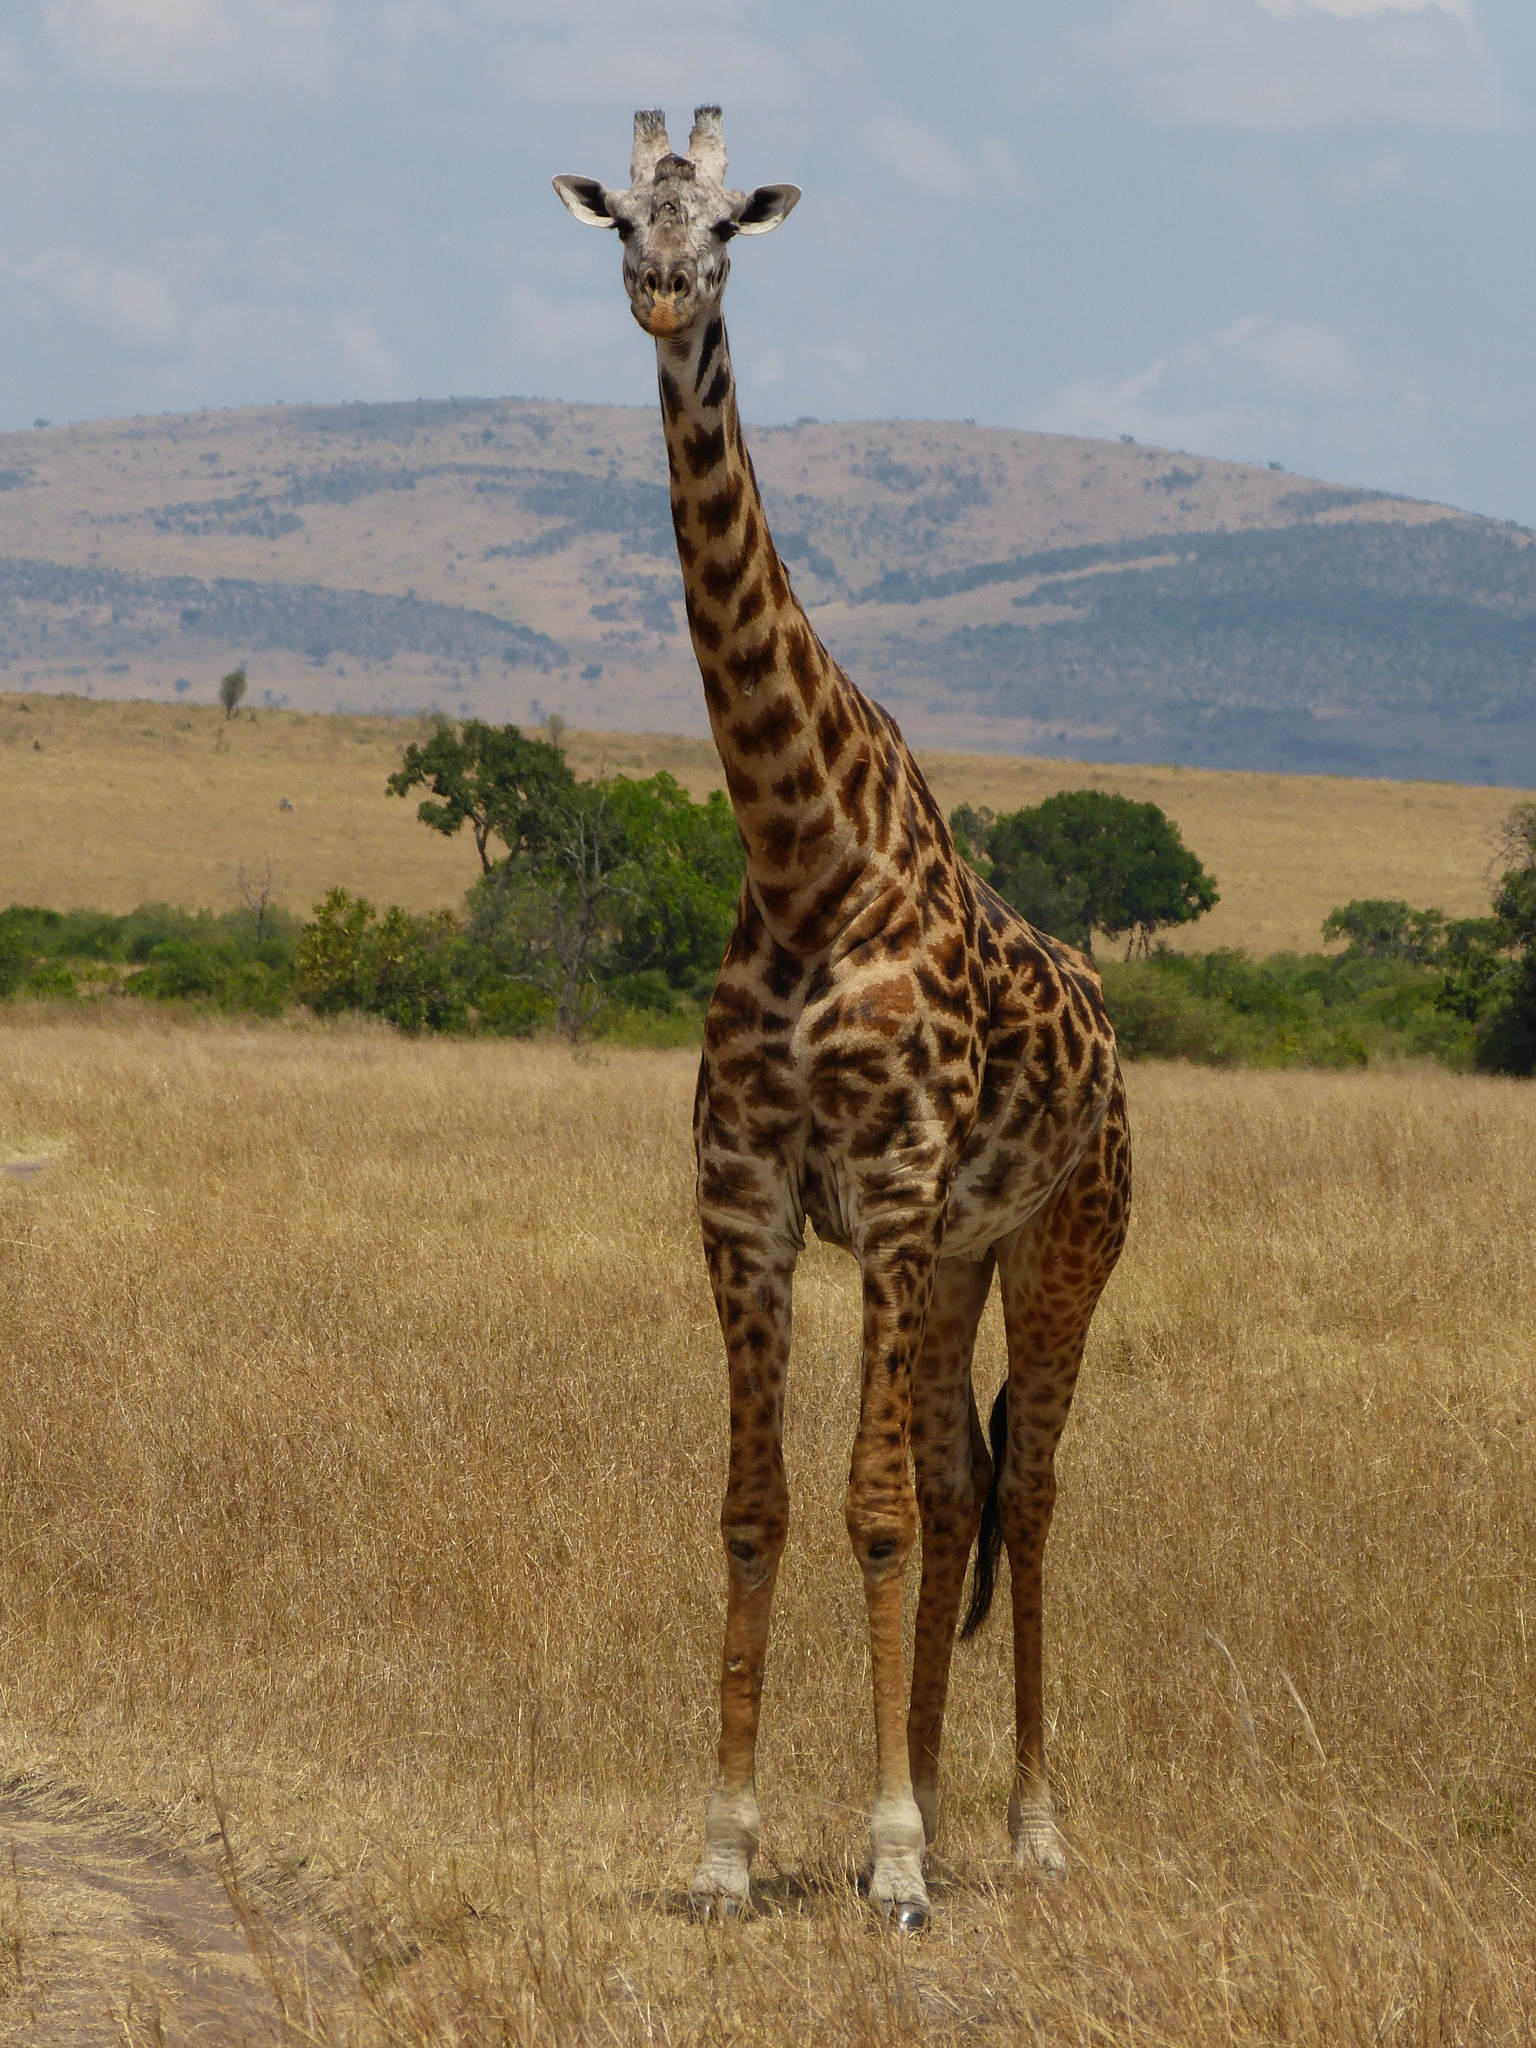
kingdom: Animalia
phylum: Chordata
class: Mammalia
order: Artiodactyla
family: Giraffidae
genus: Giraffa
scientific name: Giraffa tippelskirchi
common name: Masai giraffe
